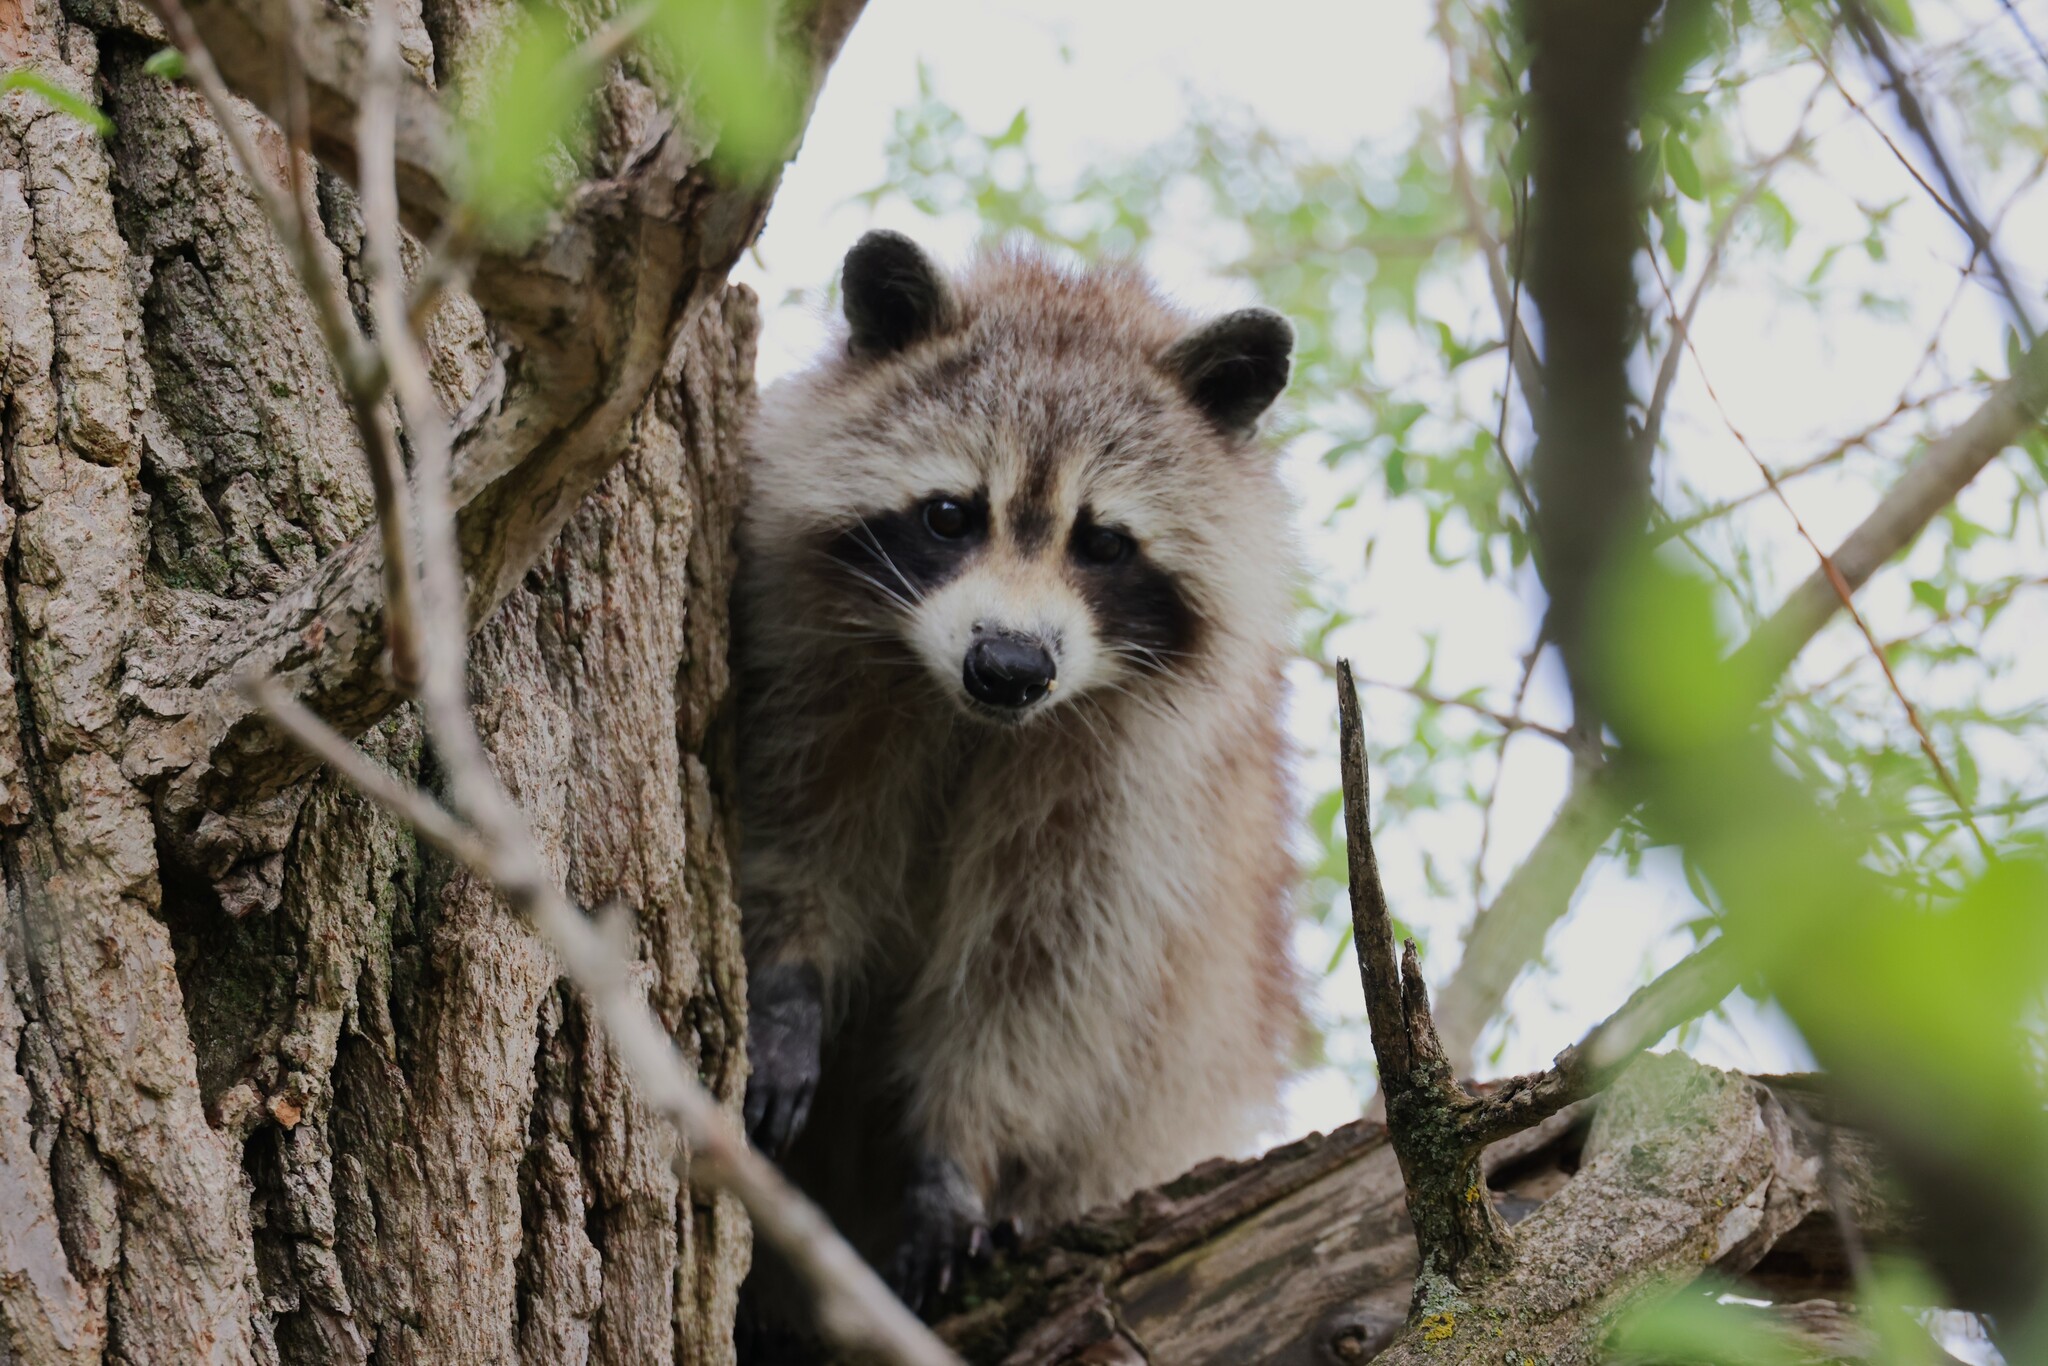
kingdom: Animalia
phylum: Chordata
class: Mammalia
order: Carnivora
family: Procyonidae
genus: Procyon
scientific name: Procyon lotor
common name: Raccoon
